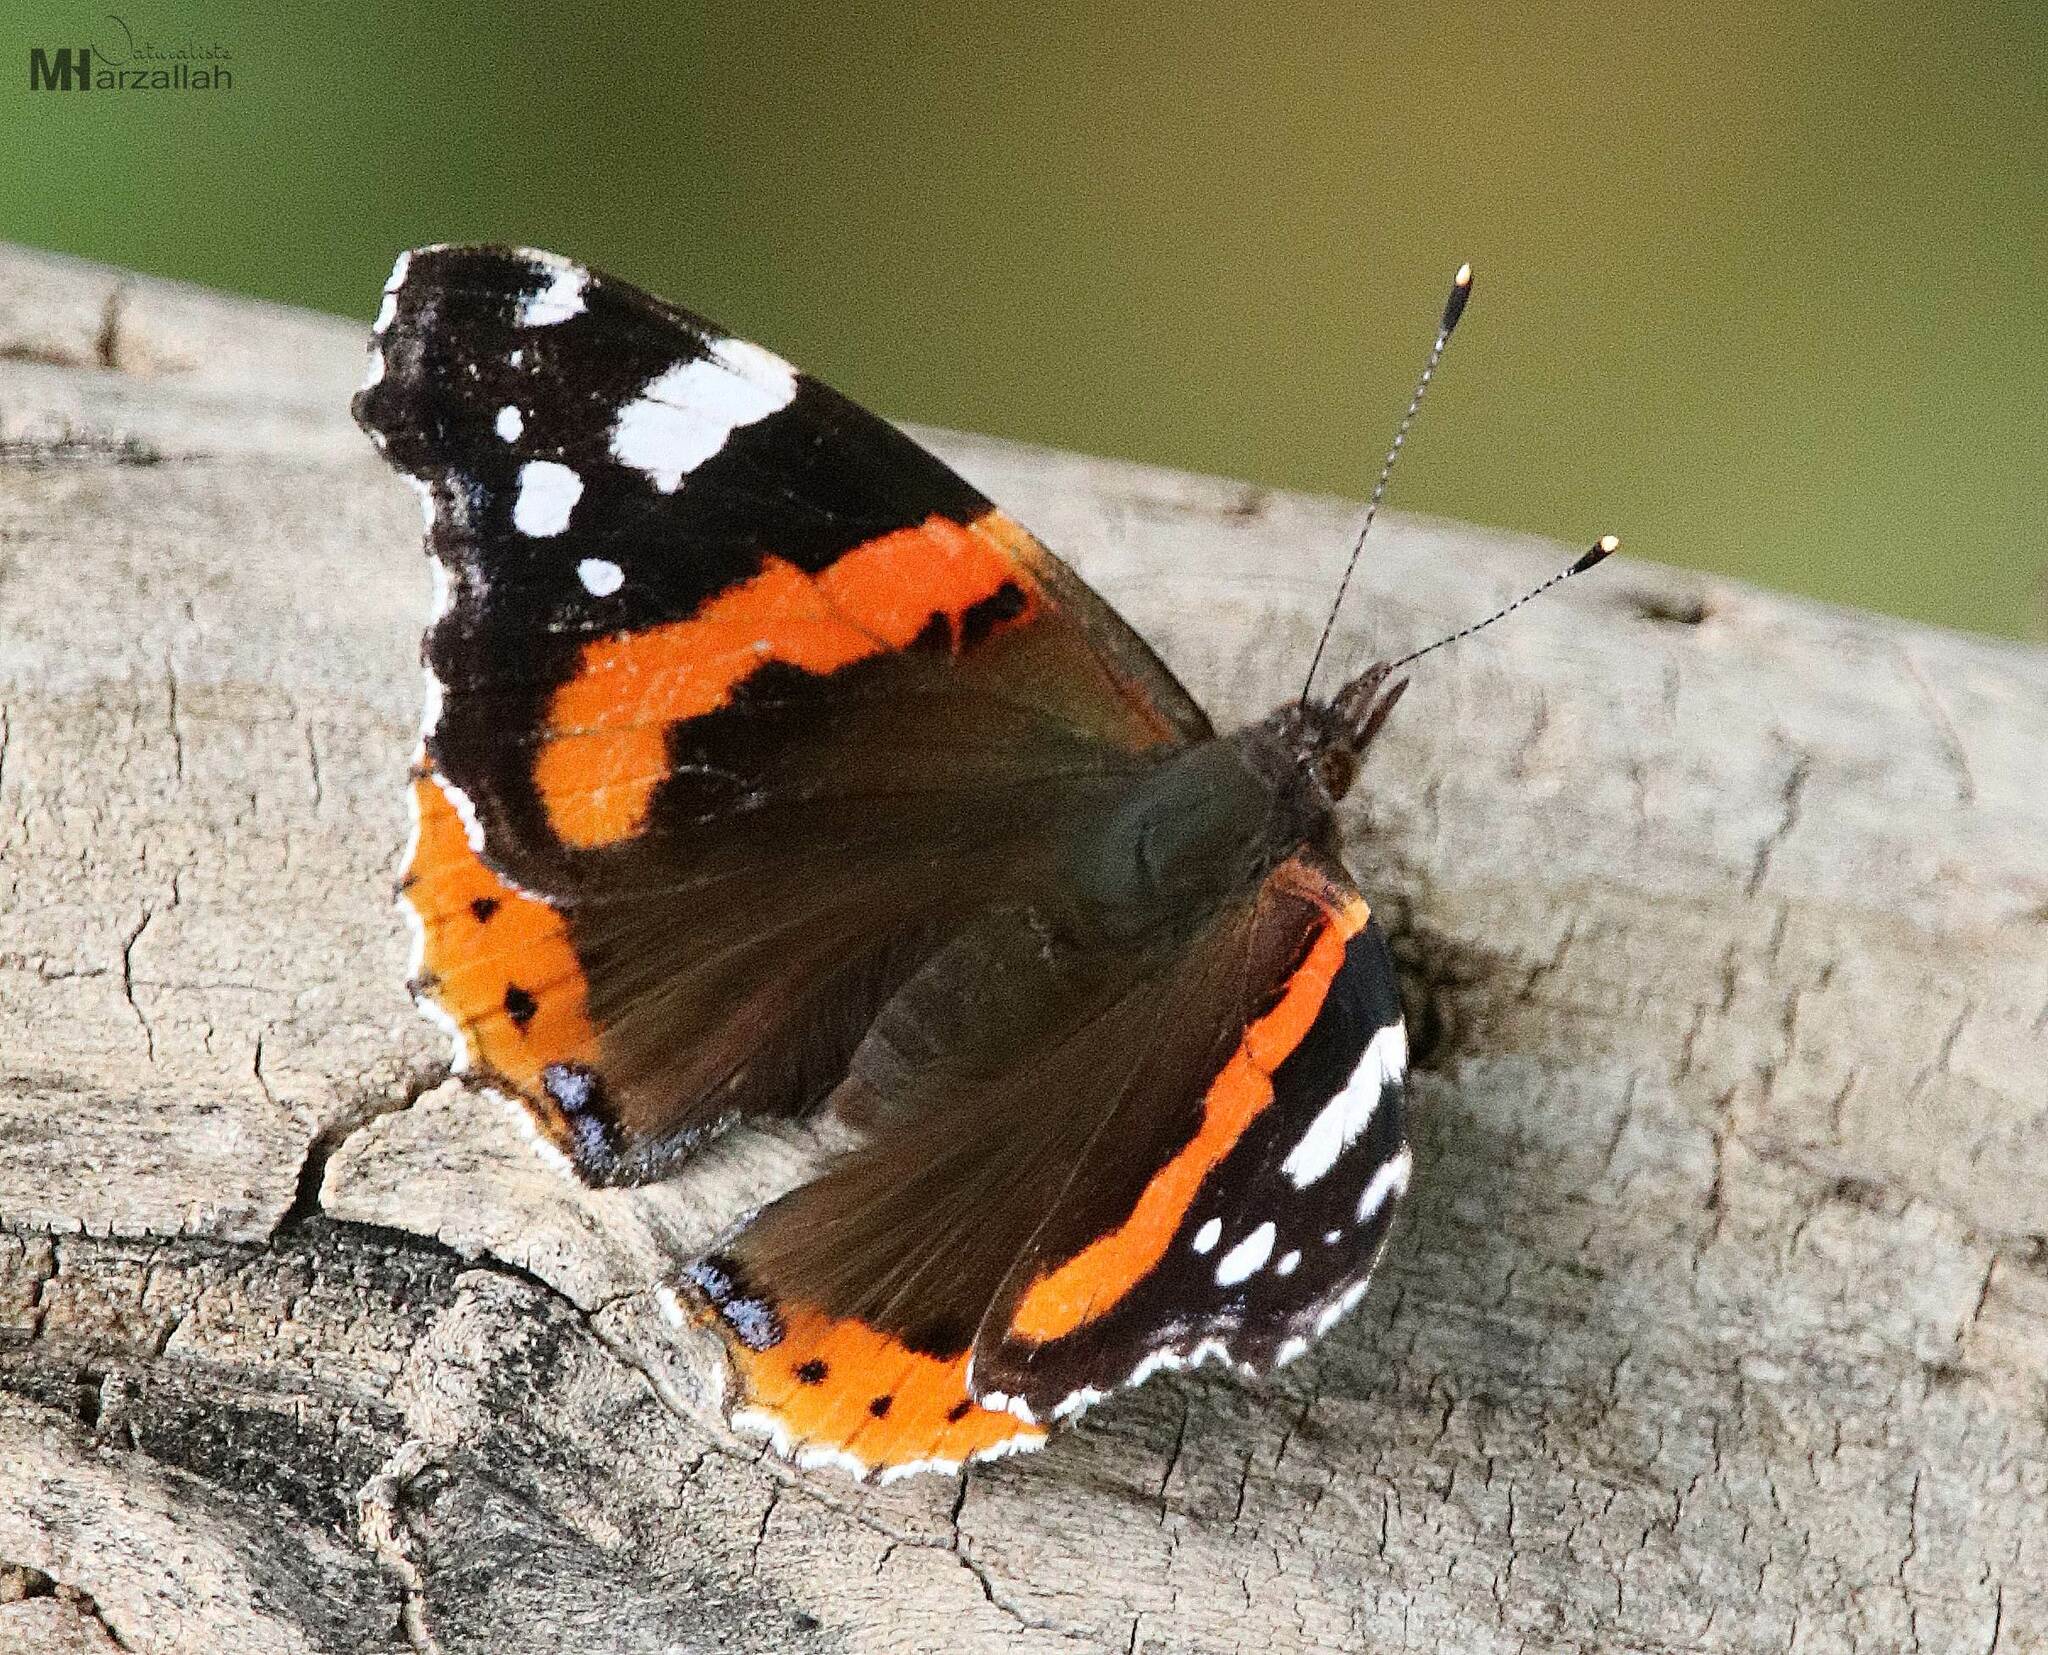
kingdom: Animalia
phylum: Arthropoda
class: Insecta
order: Lepidoptera
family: Nymphalidae
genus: Vanessa
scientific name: Vanessa atalanta
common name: Red admiral
